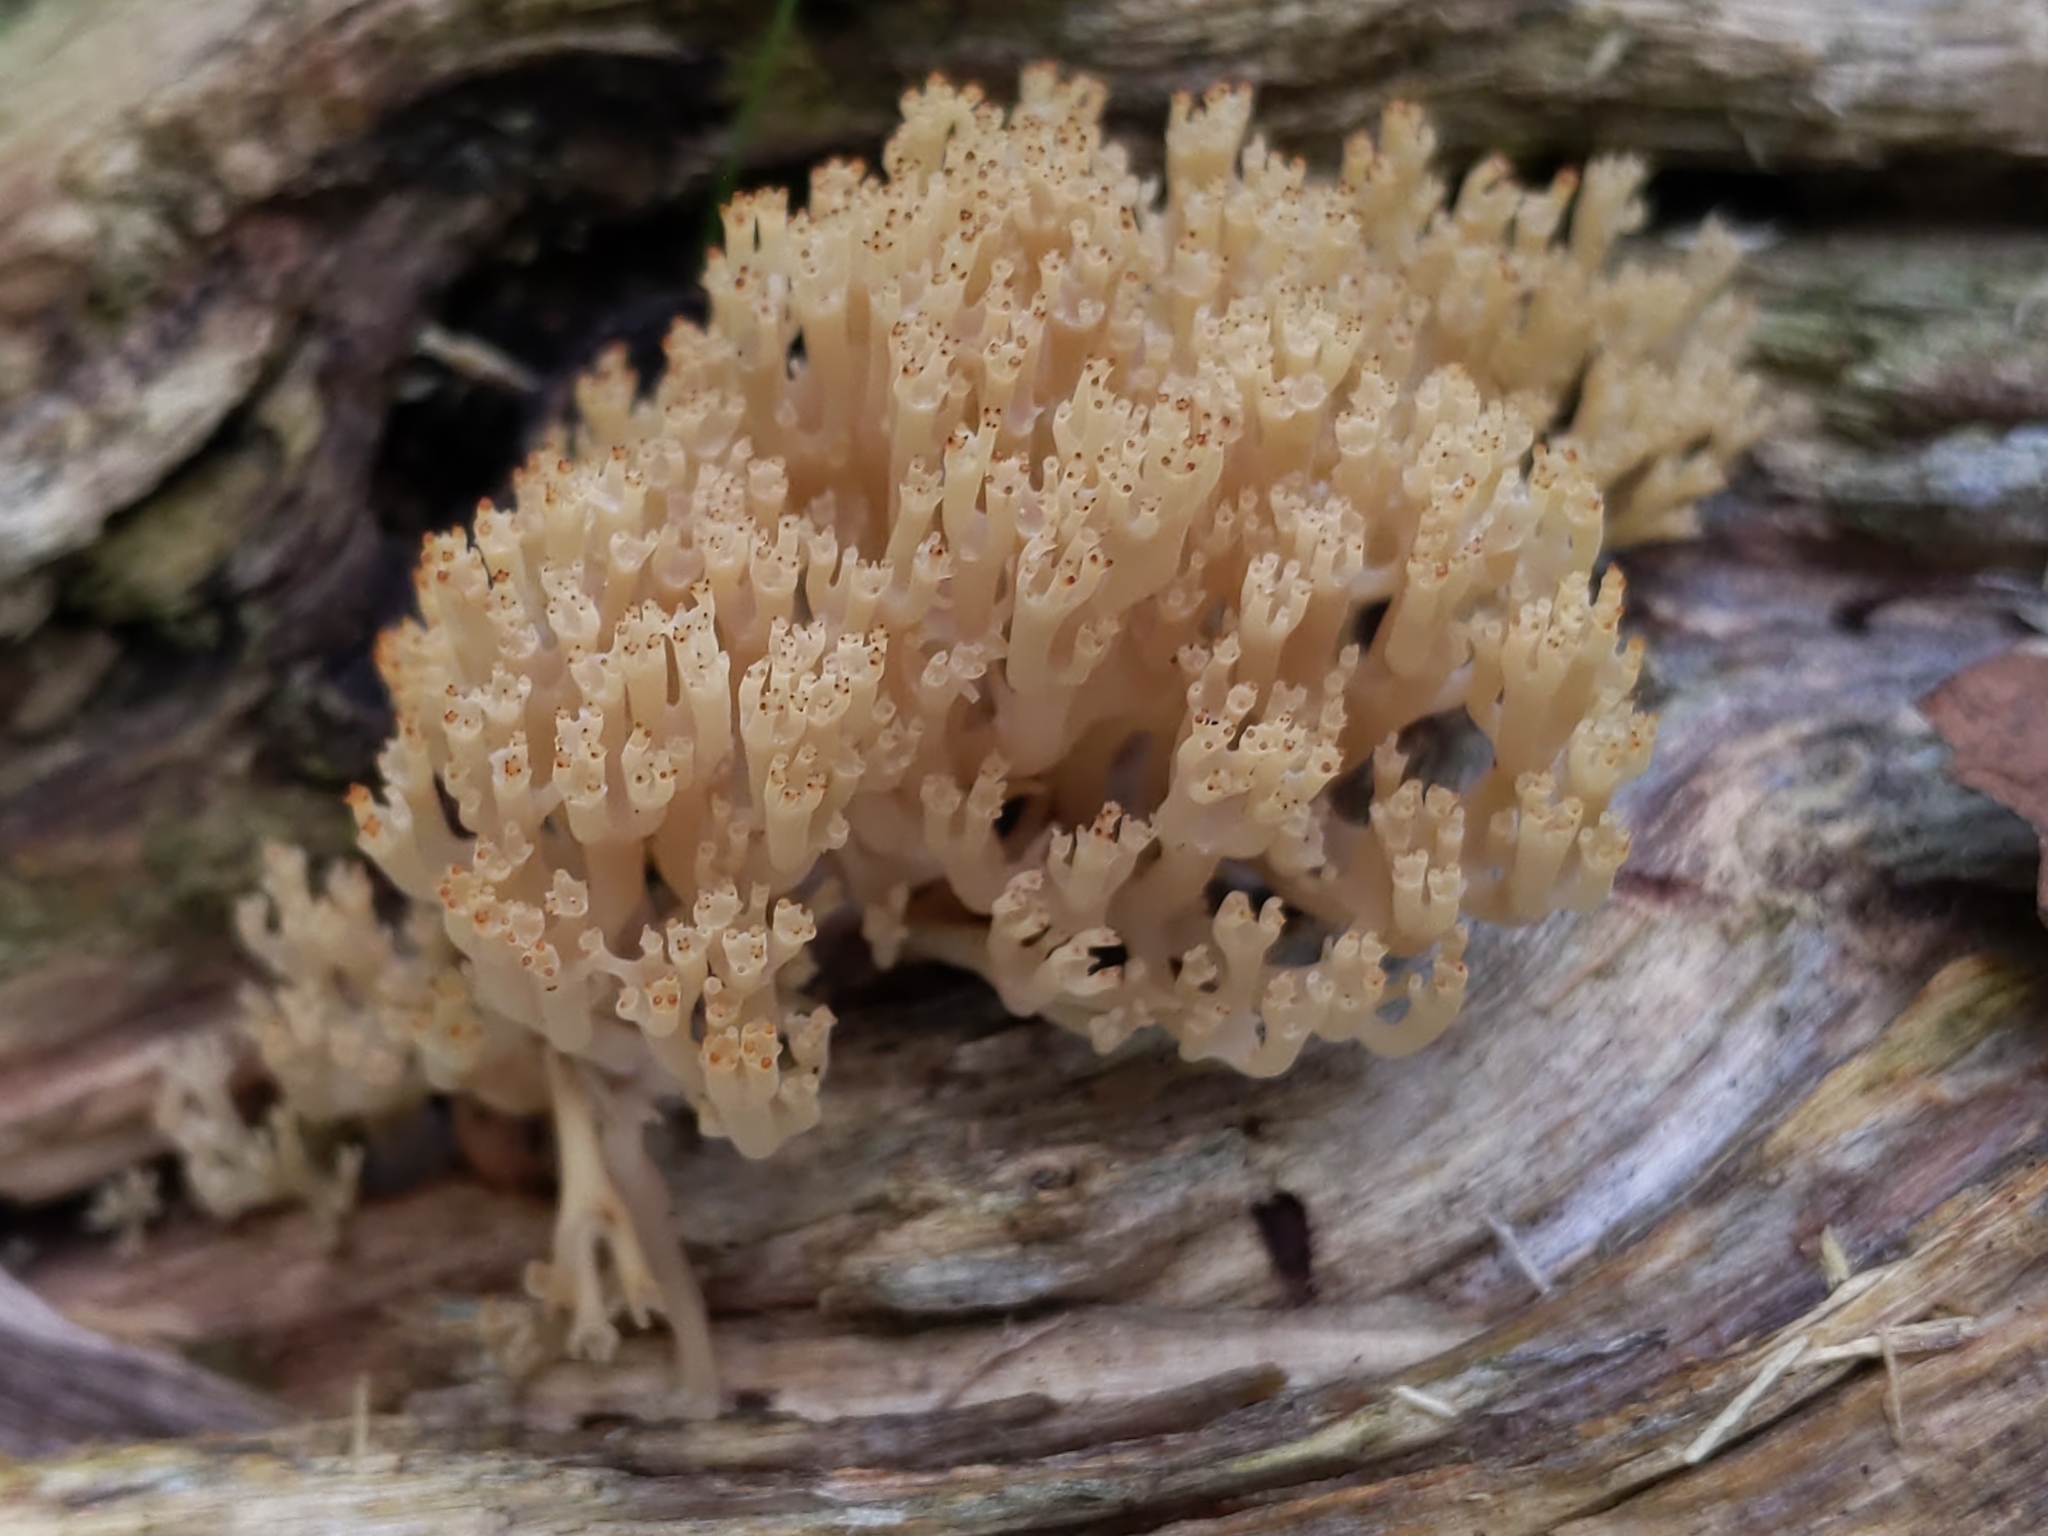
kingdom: Fungi
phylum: Basidiomycota
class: Agaricomycetes
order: Russulales
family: Auriscalpiaceae
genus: Artomyces
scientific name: Artomyces pyxidatus
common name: Crown-tipped coral fungus
